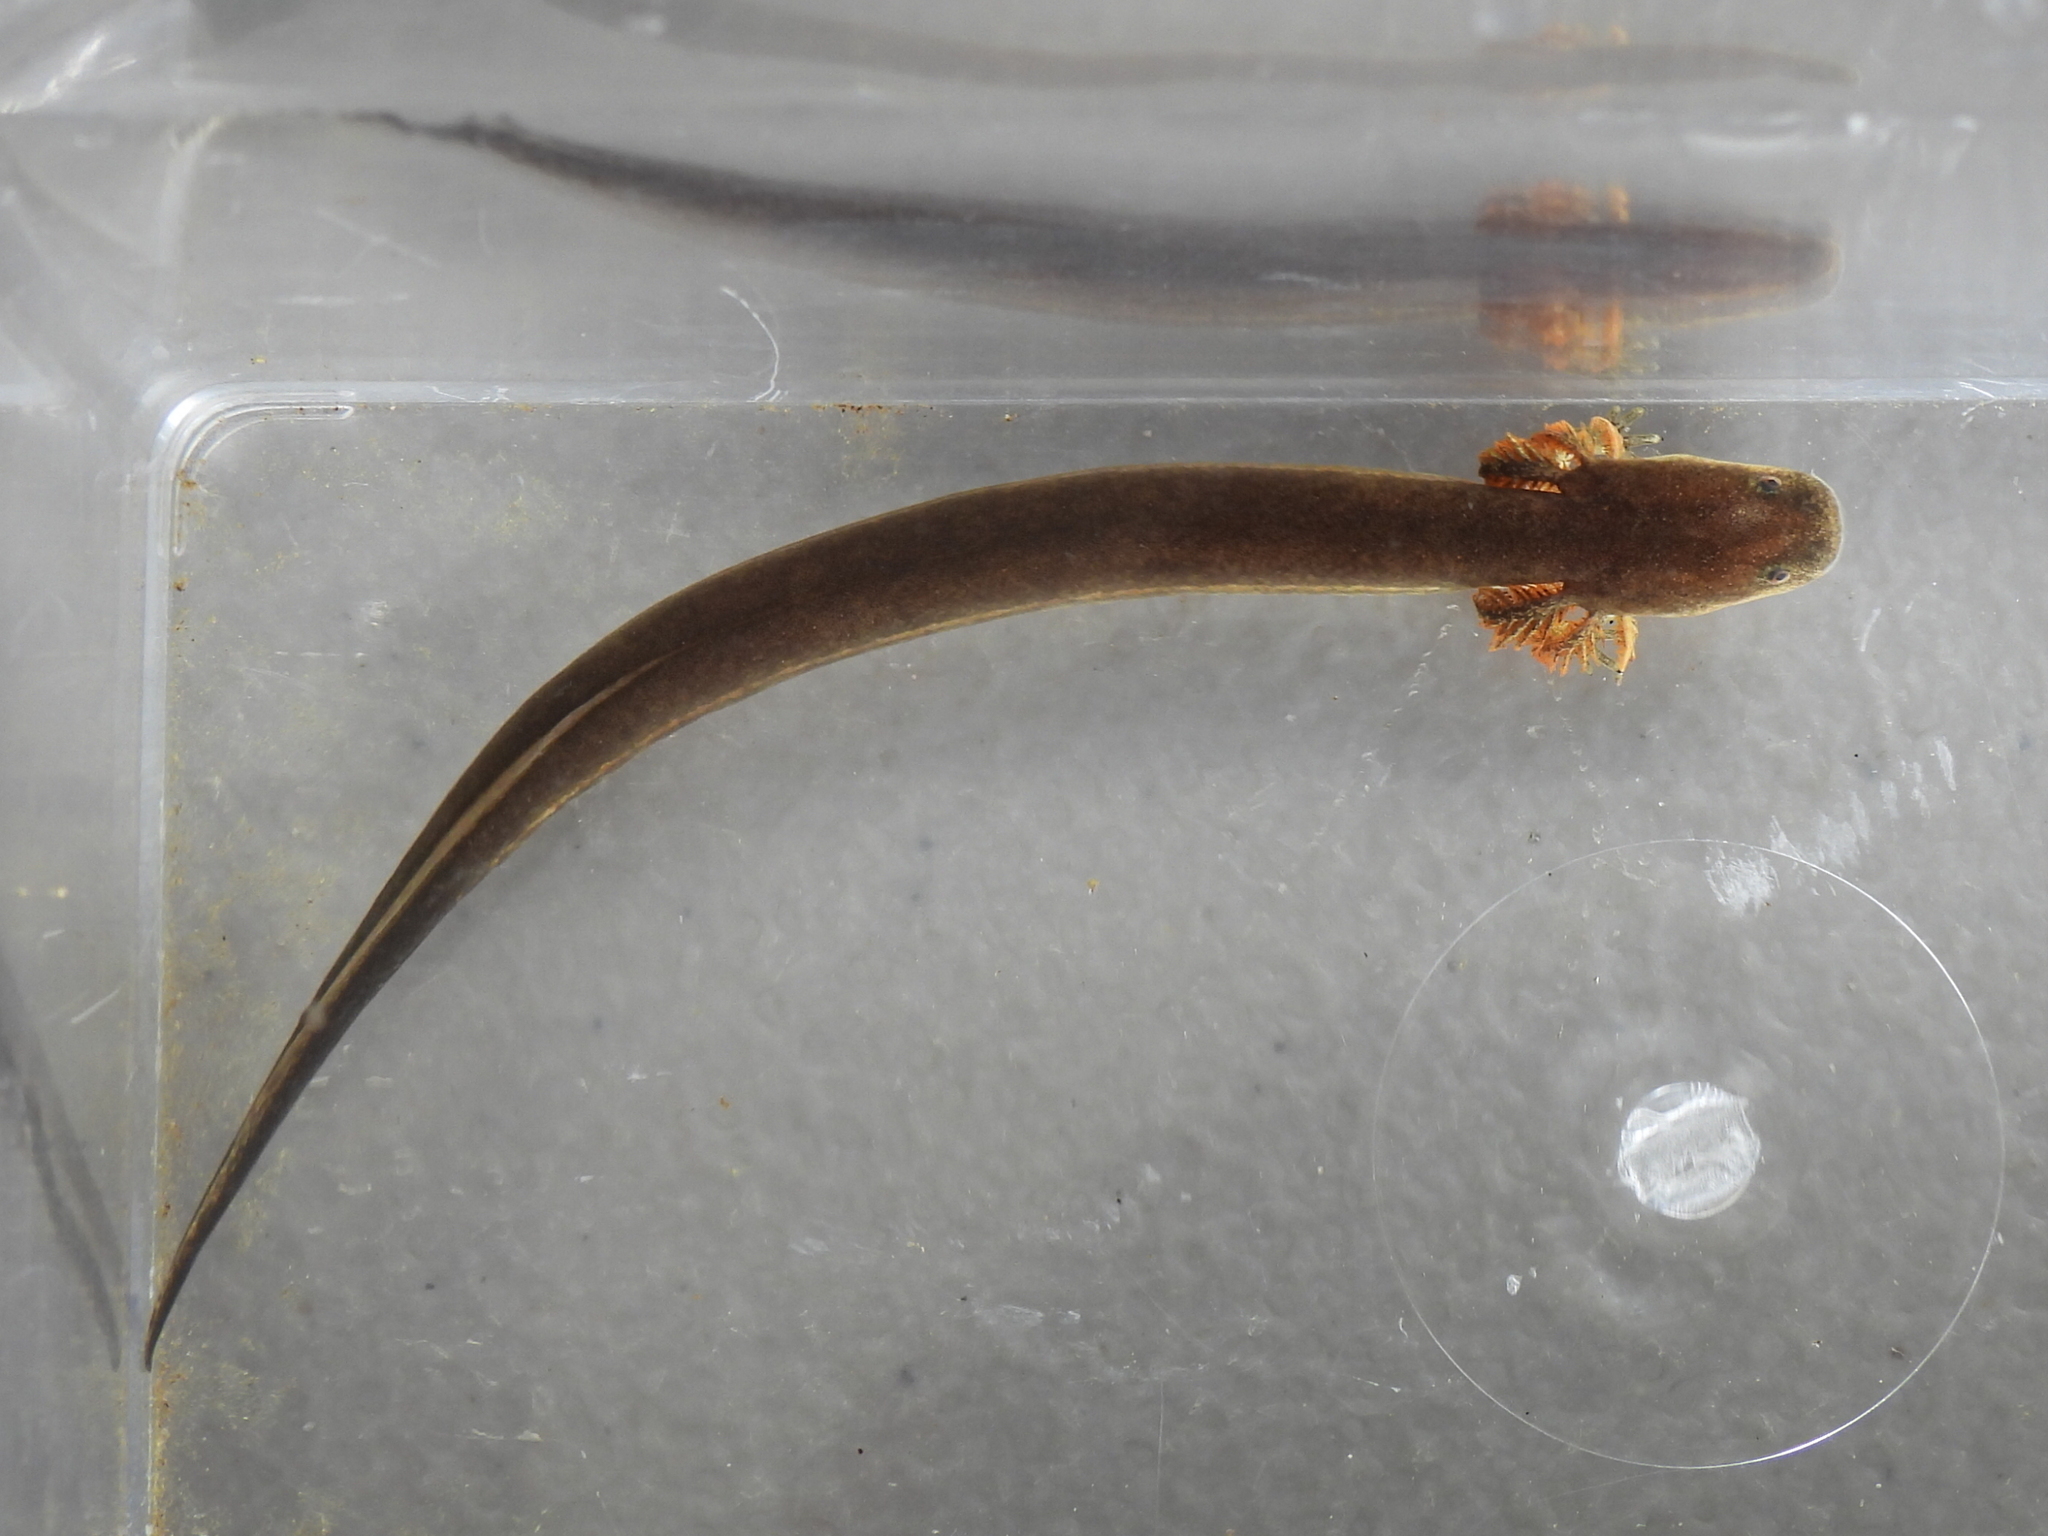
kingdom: Animalia
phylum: Chordata
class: Amphibia
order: Caudata
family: Sirenidae
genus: Siren
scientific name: Siren intermedia
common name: Lesser siren
